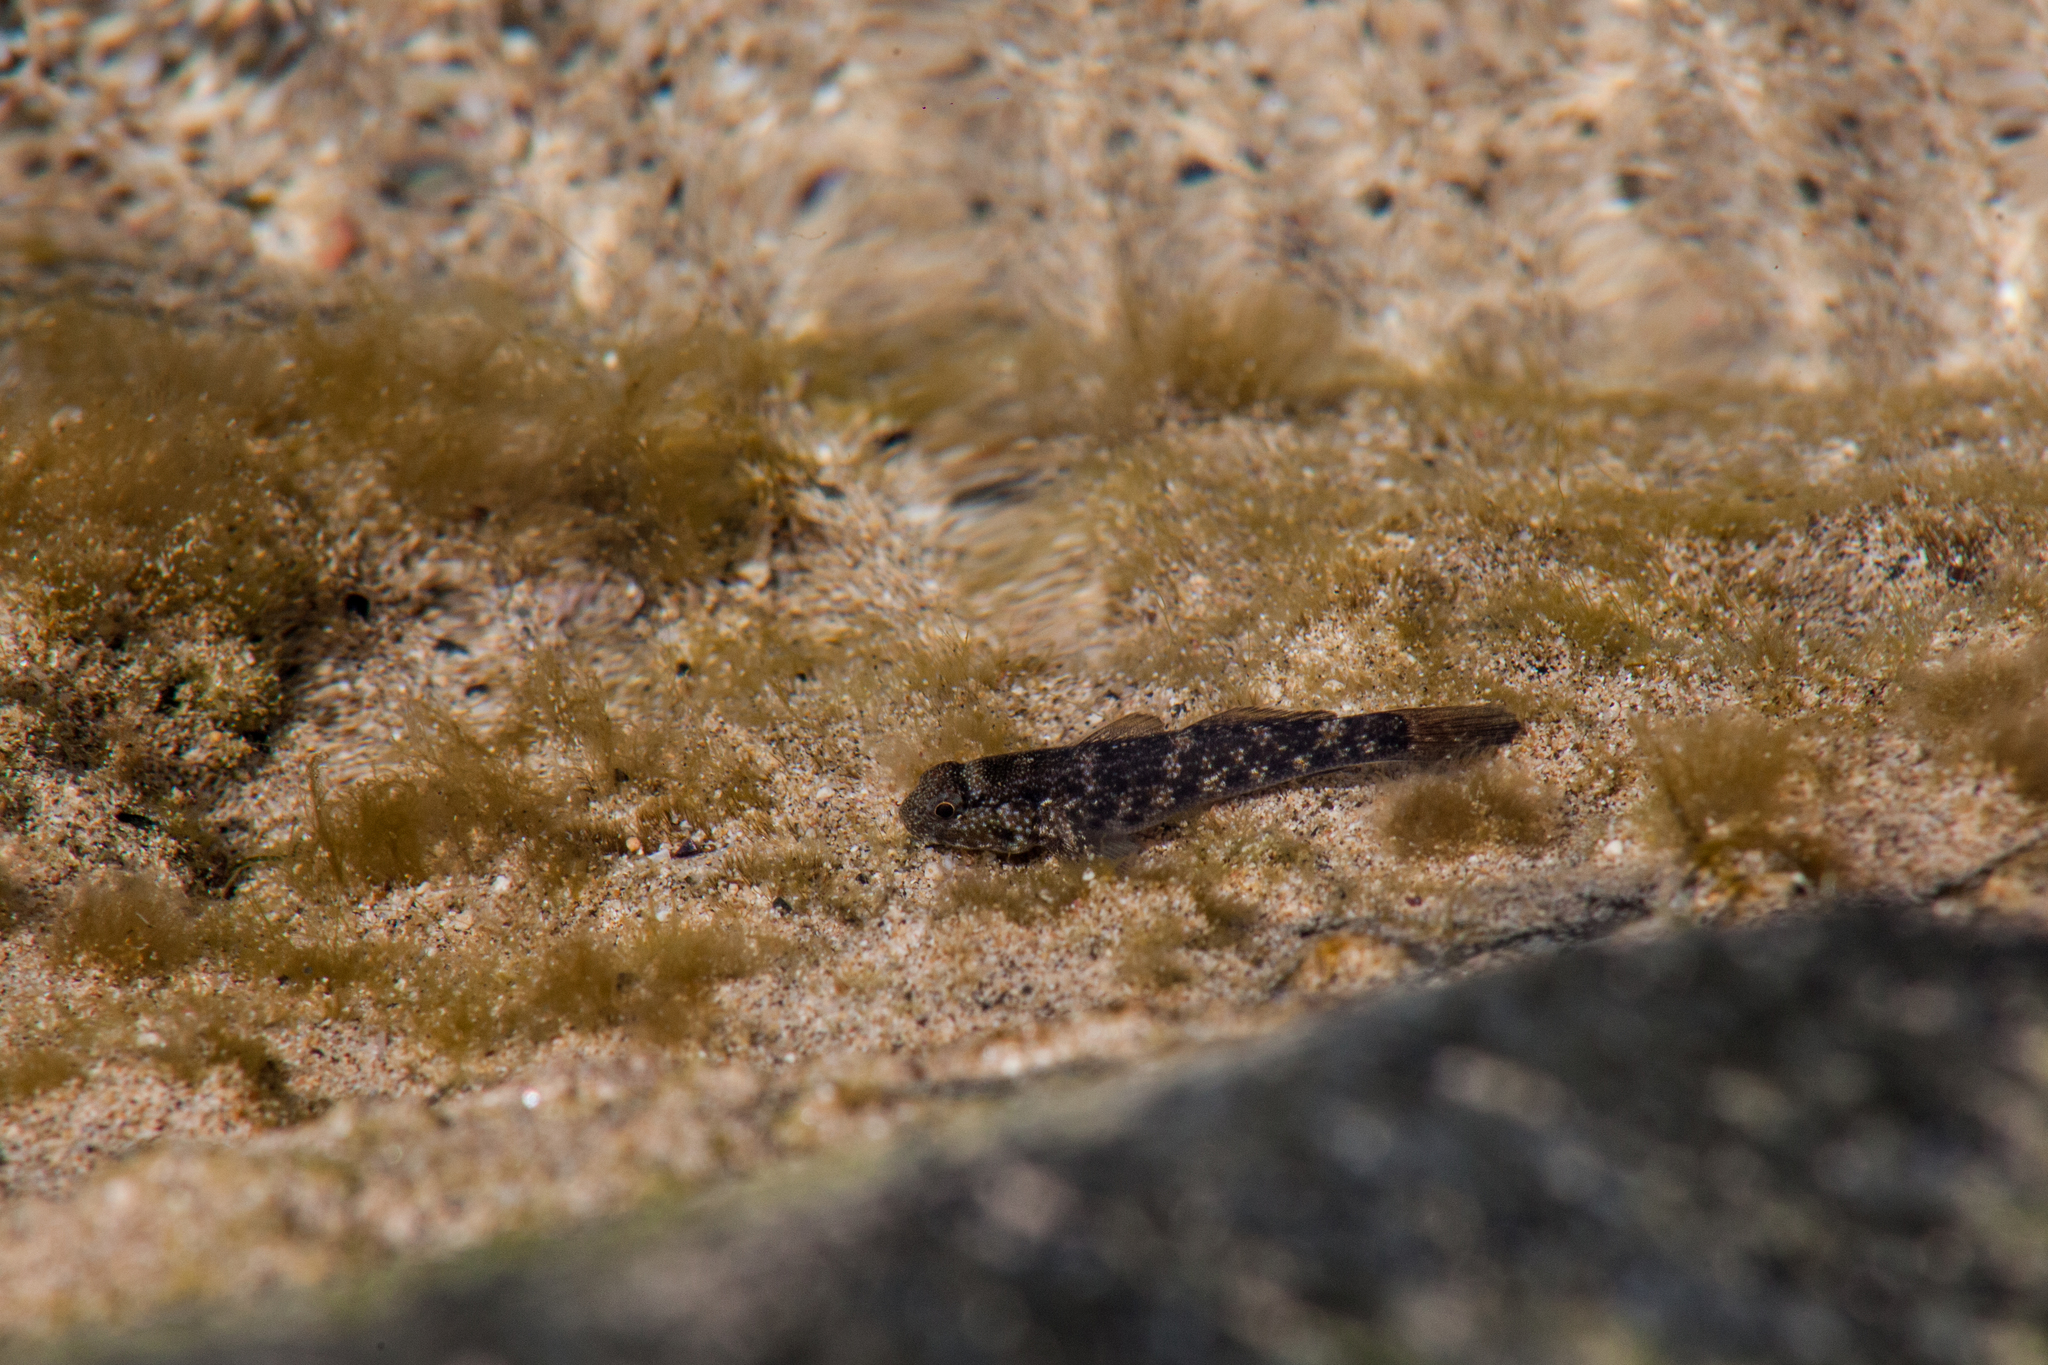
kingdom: Animalia
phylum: Chordata
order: Perciformes
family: Gobiidae
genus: Bathygobius
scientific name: Bathygobius brasiliensis
